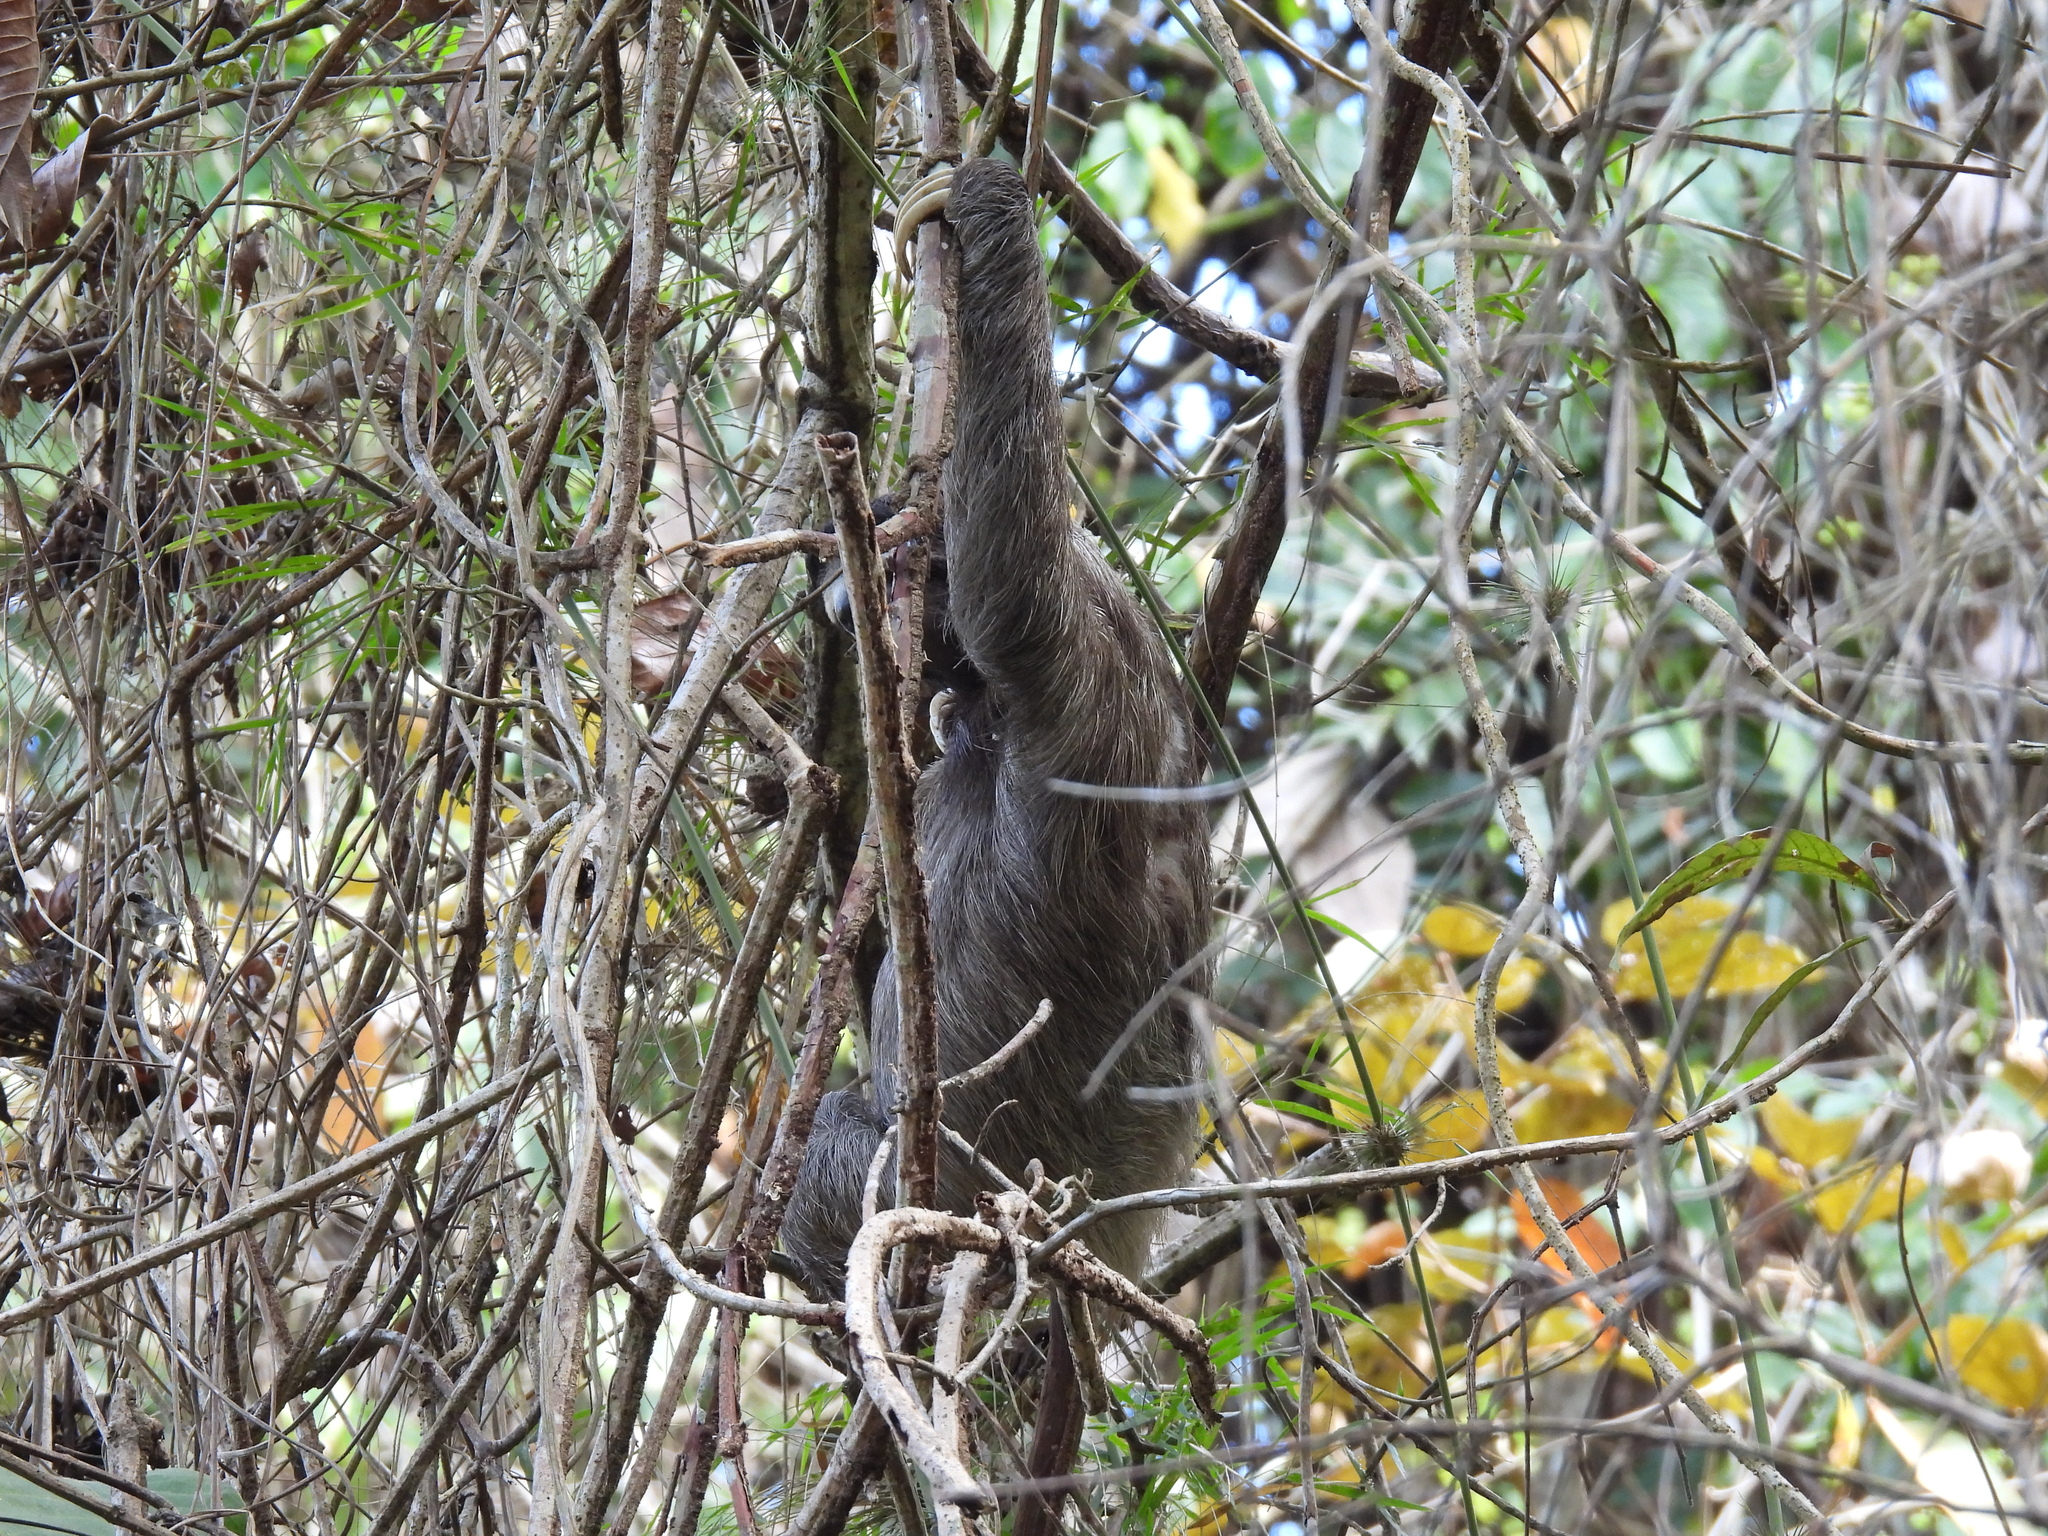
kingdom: Animalia
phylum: Chordata
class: Mammalia
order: Pilosa
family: Bradypodidae
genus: Bradypus
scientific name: Bradypus variegatus
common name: Brown-throated three-toed sloth
